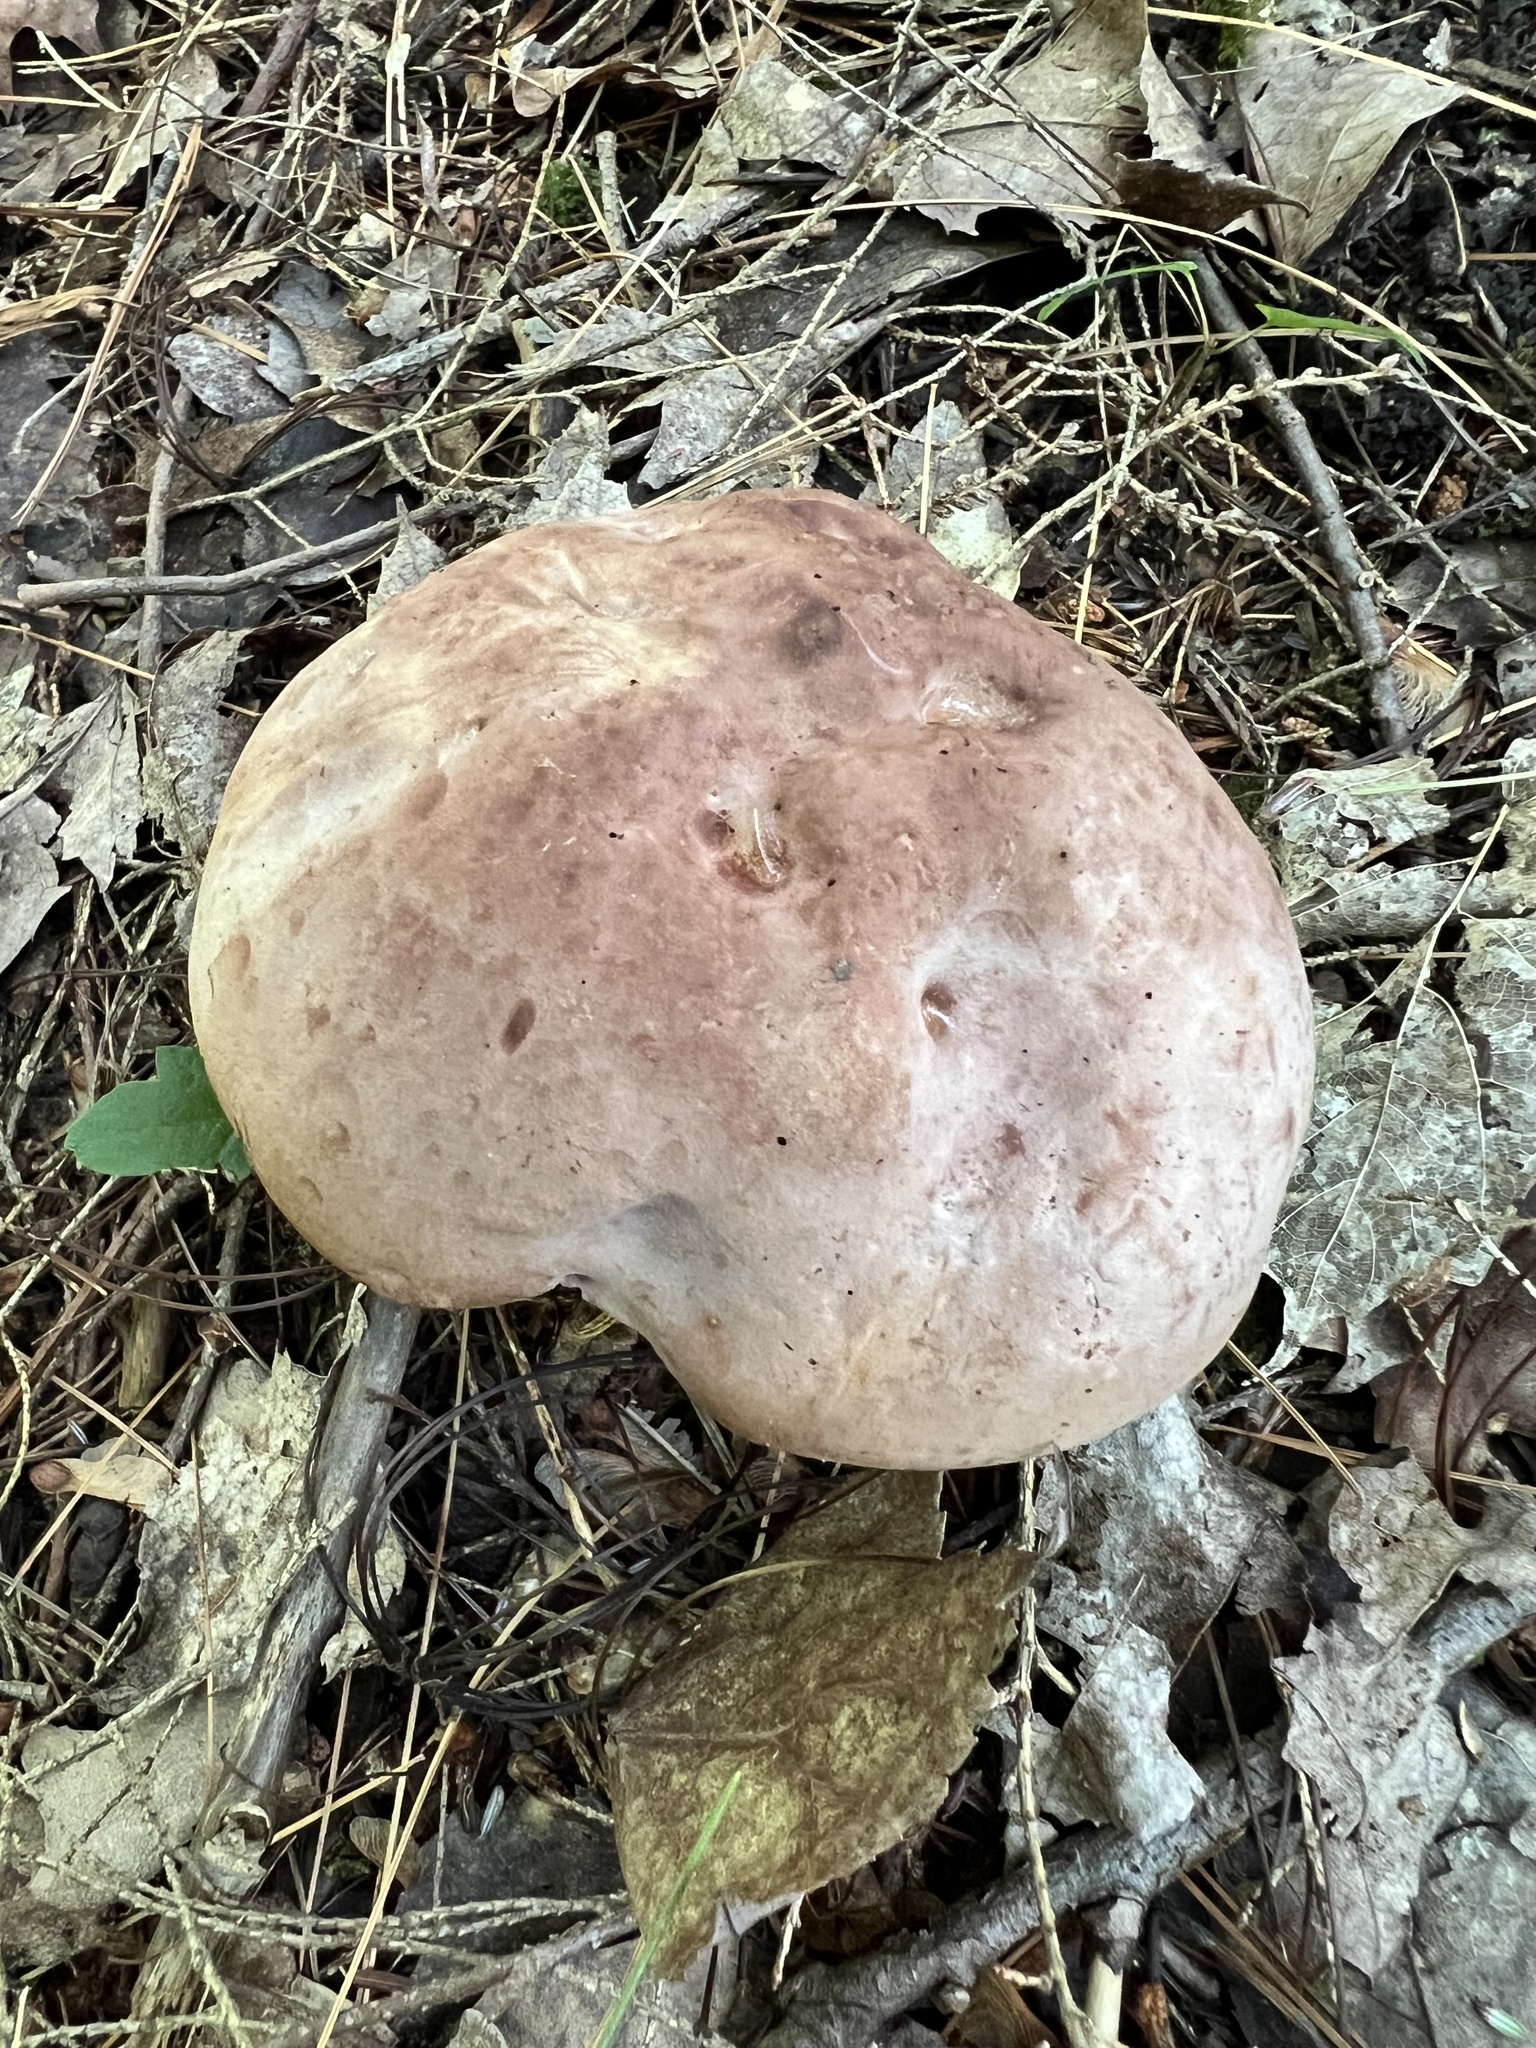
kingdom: Fungi
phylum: Basidiomycota
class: Agaricomycetes
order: Boletales
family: Boletaceae
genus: Sutorius
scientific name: Sutorius eximius
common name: Lilac-brown bolete
